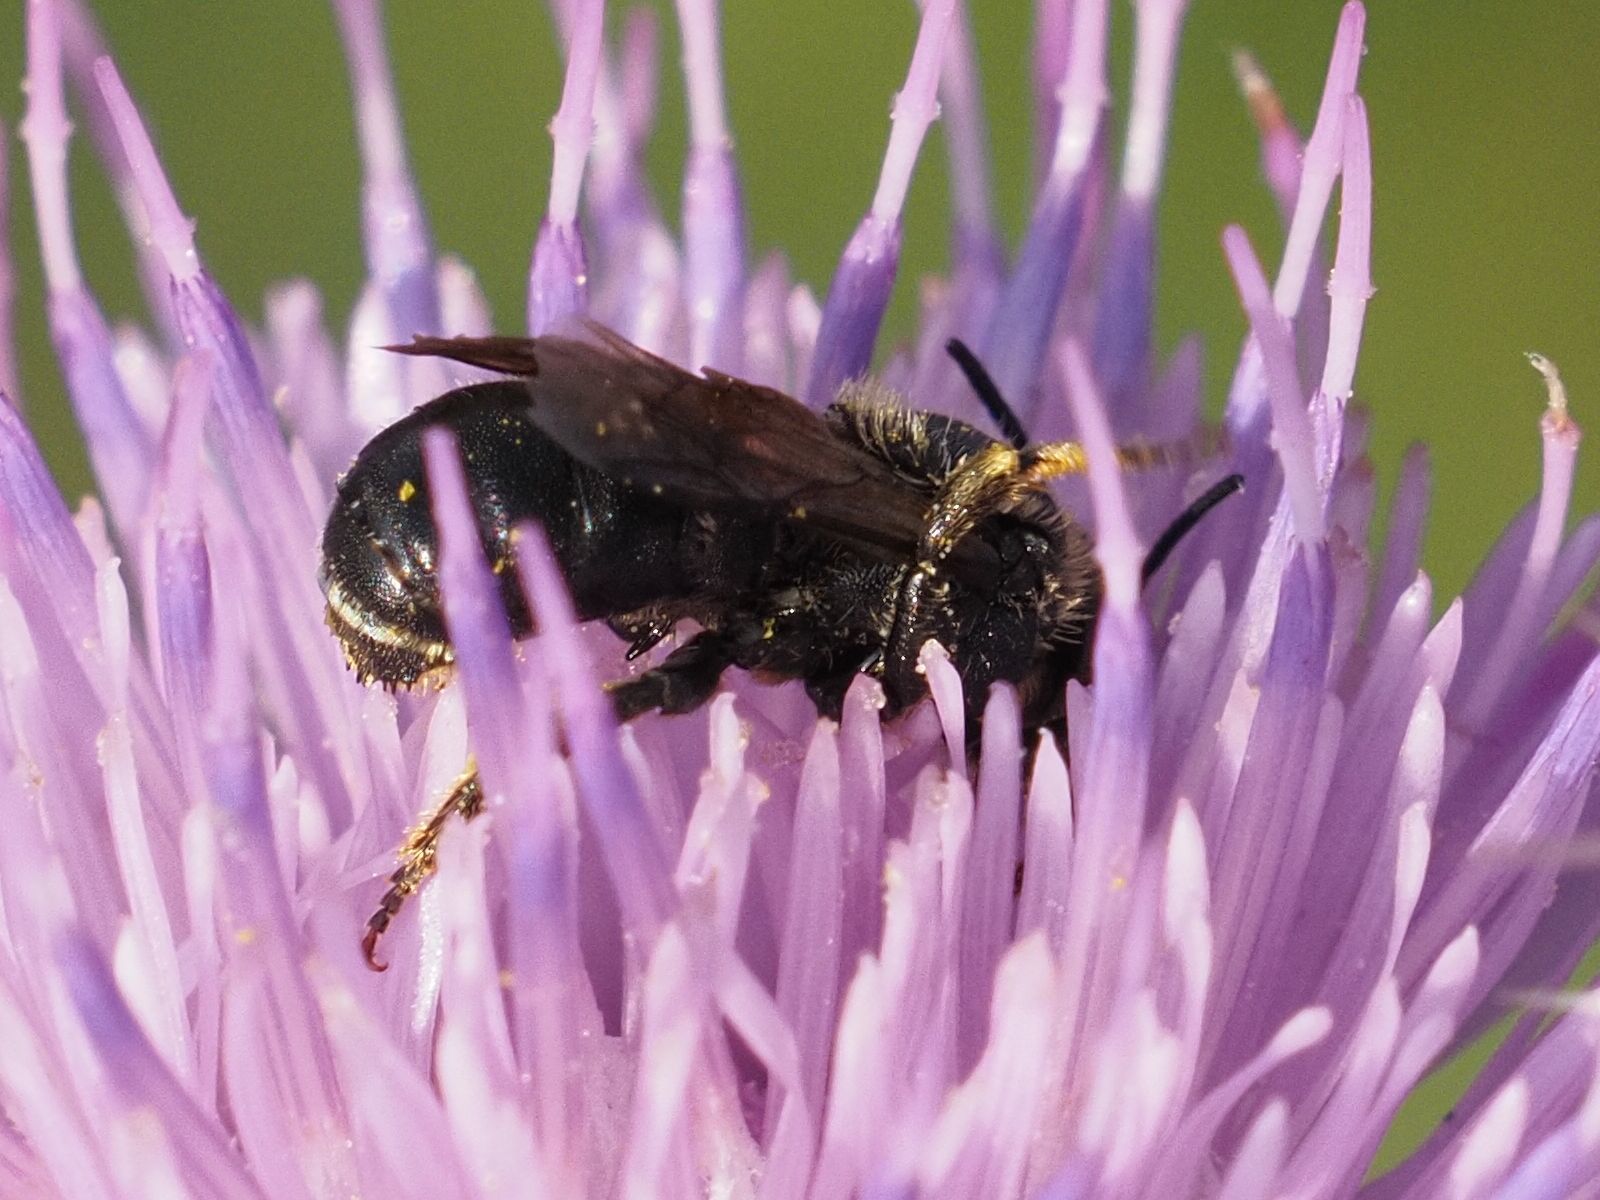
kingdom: Animalia
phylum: Arthropoda
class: Insecta
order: Hymenoptera
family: Megachilidae
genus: Osmia
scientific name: Osmia spinulosa
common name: Spined mason bee
